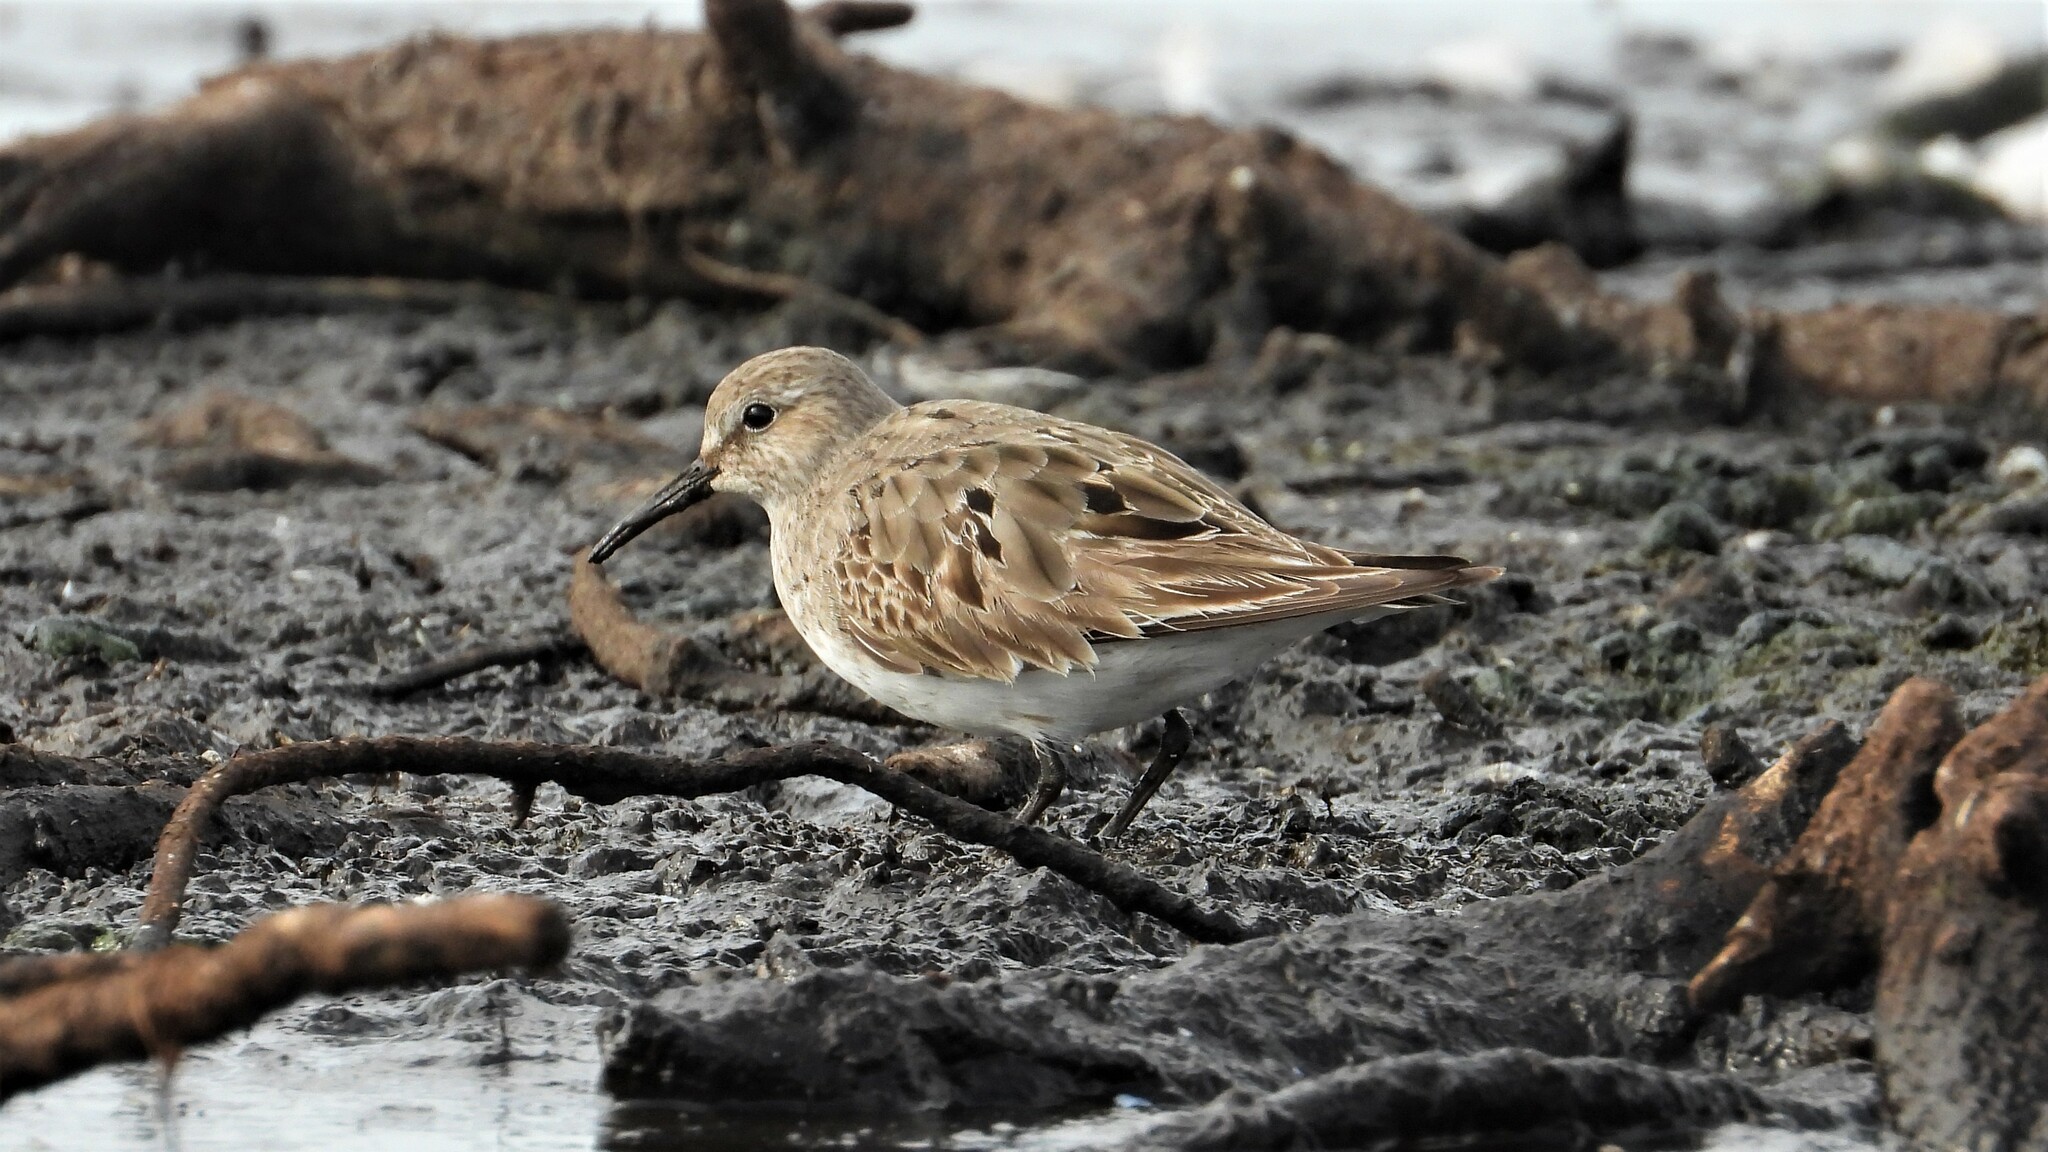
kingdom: Animalia
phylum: Chordata
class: Aves
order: Charadriiformes
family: Scolopacidae
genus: Calidris
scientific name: Calidris fuscicollis
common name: White-rumped sandpiper
